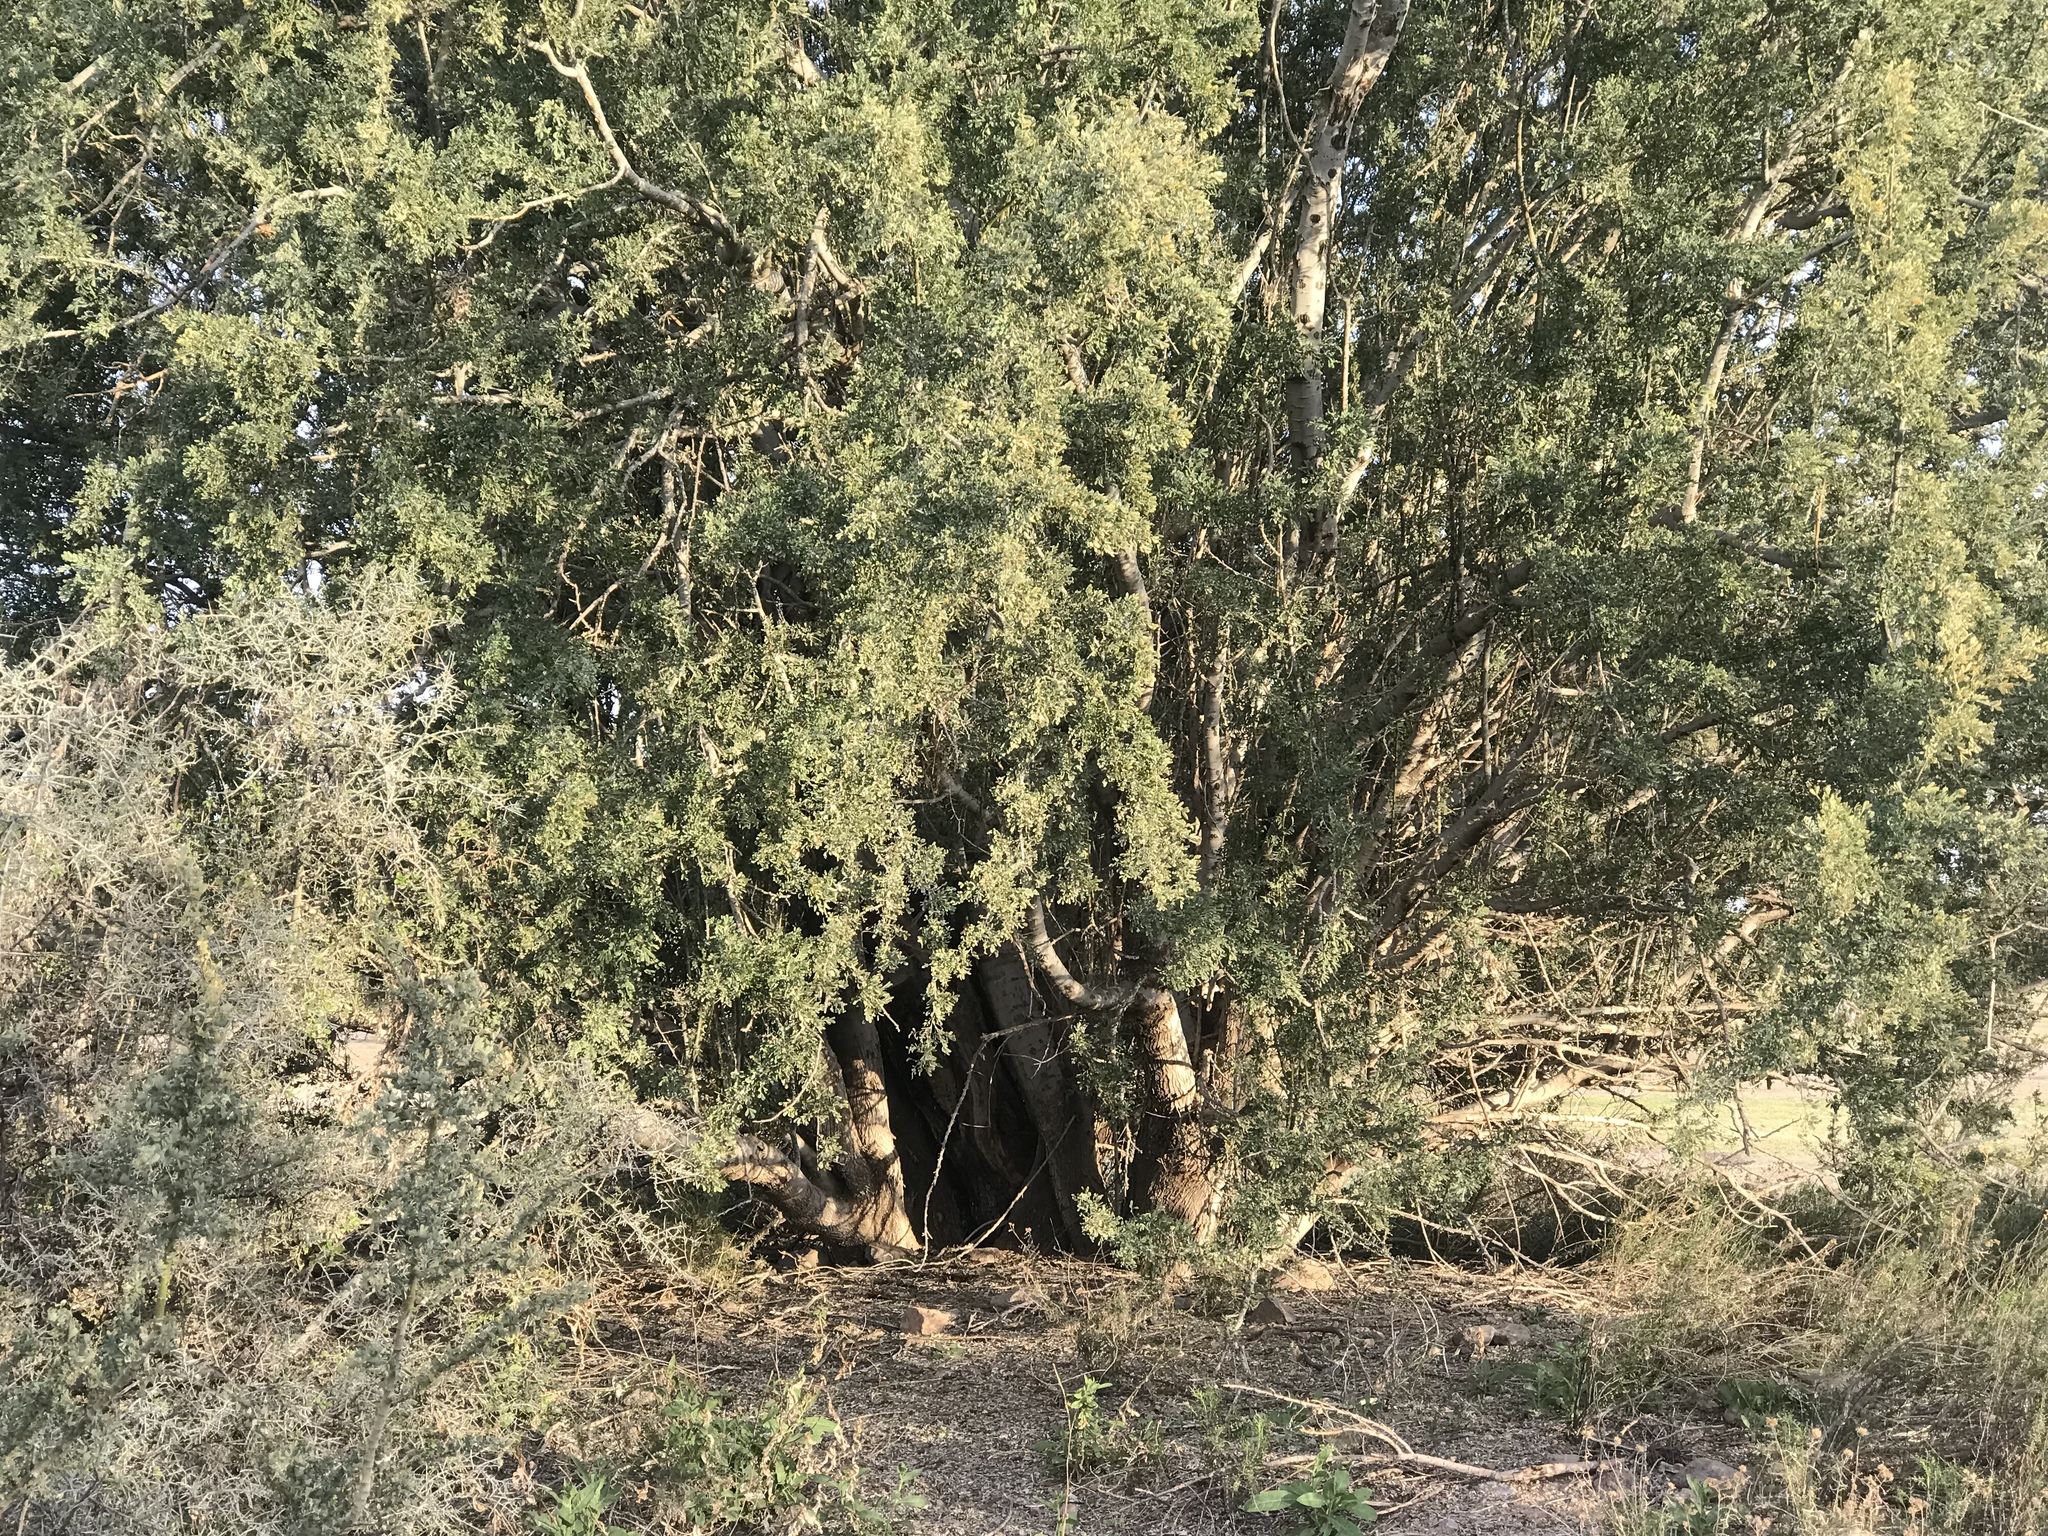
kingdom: Plantae
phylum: Tracheophyta
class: Magnoliopsida
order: Fabales
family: Fabaceae
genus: Olneya
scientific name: Olneya tesota
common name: Desert ironwood
